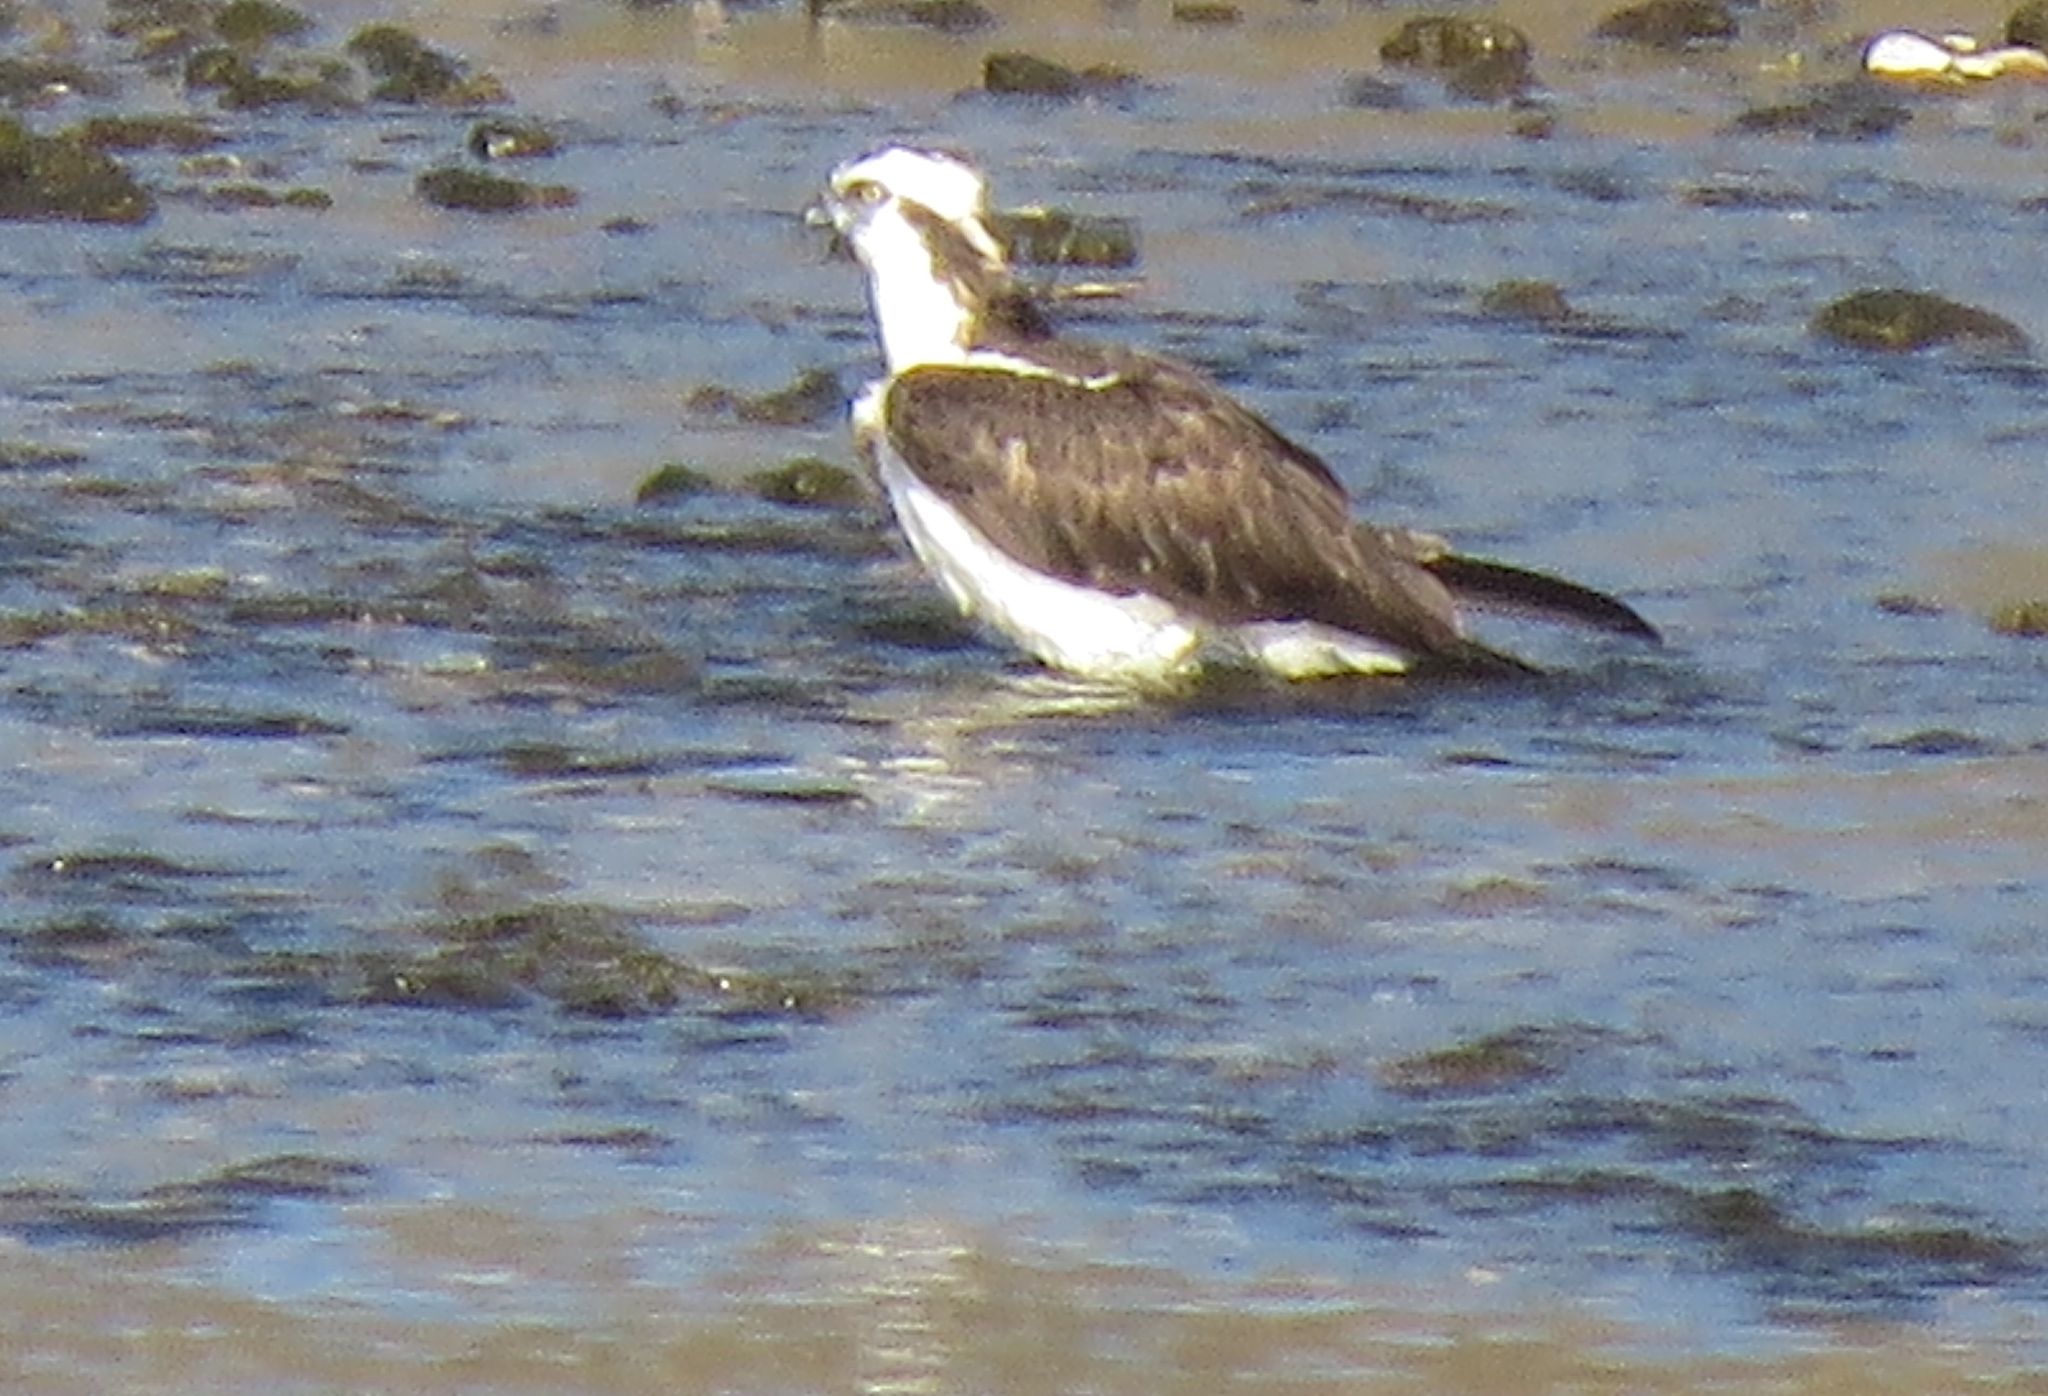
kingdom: Animalia
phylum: Chordata
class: Aves
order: Accipitriformes
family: Pandionidae
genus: Pandion
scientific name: Pandion haliaetus
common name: Osprey
